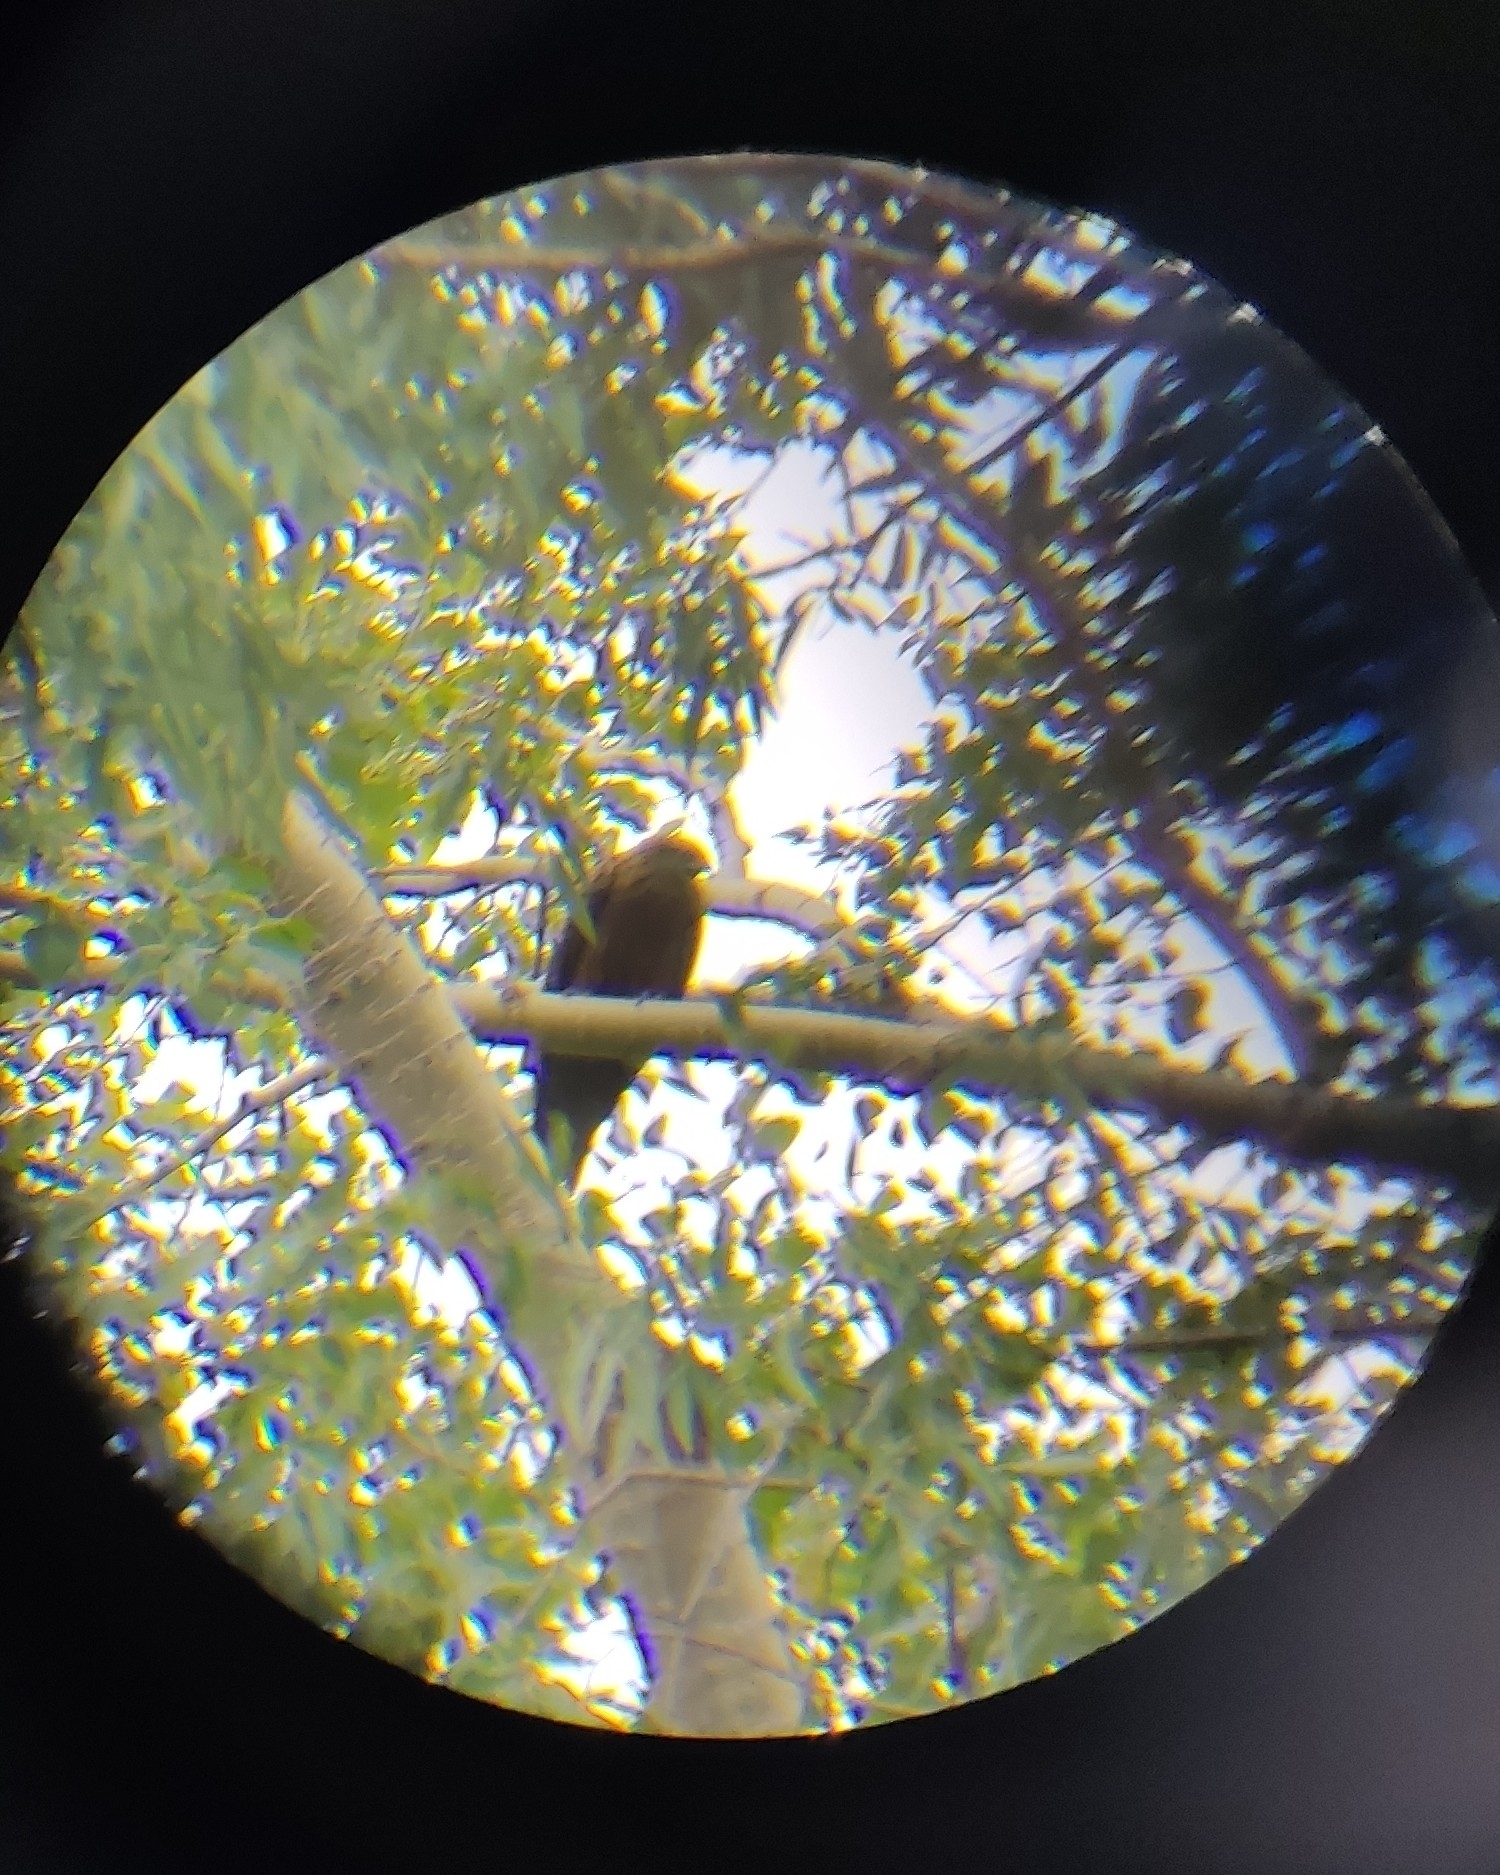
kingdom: Animalia
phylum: Chordata
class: Aves
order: Accipitriformes
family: Accipitridae
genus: Milvus
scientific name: Milvus migrans
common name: Black kite
